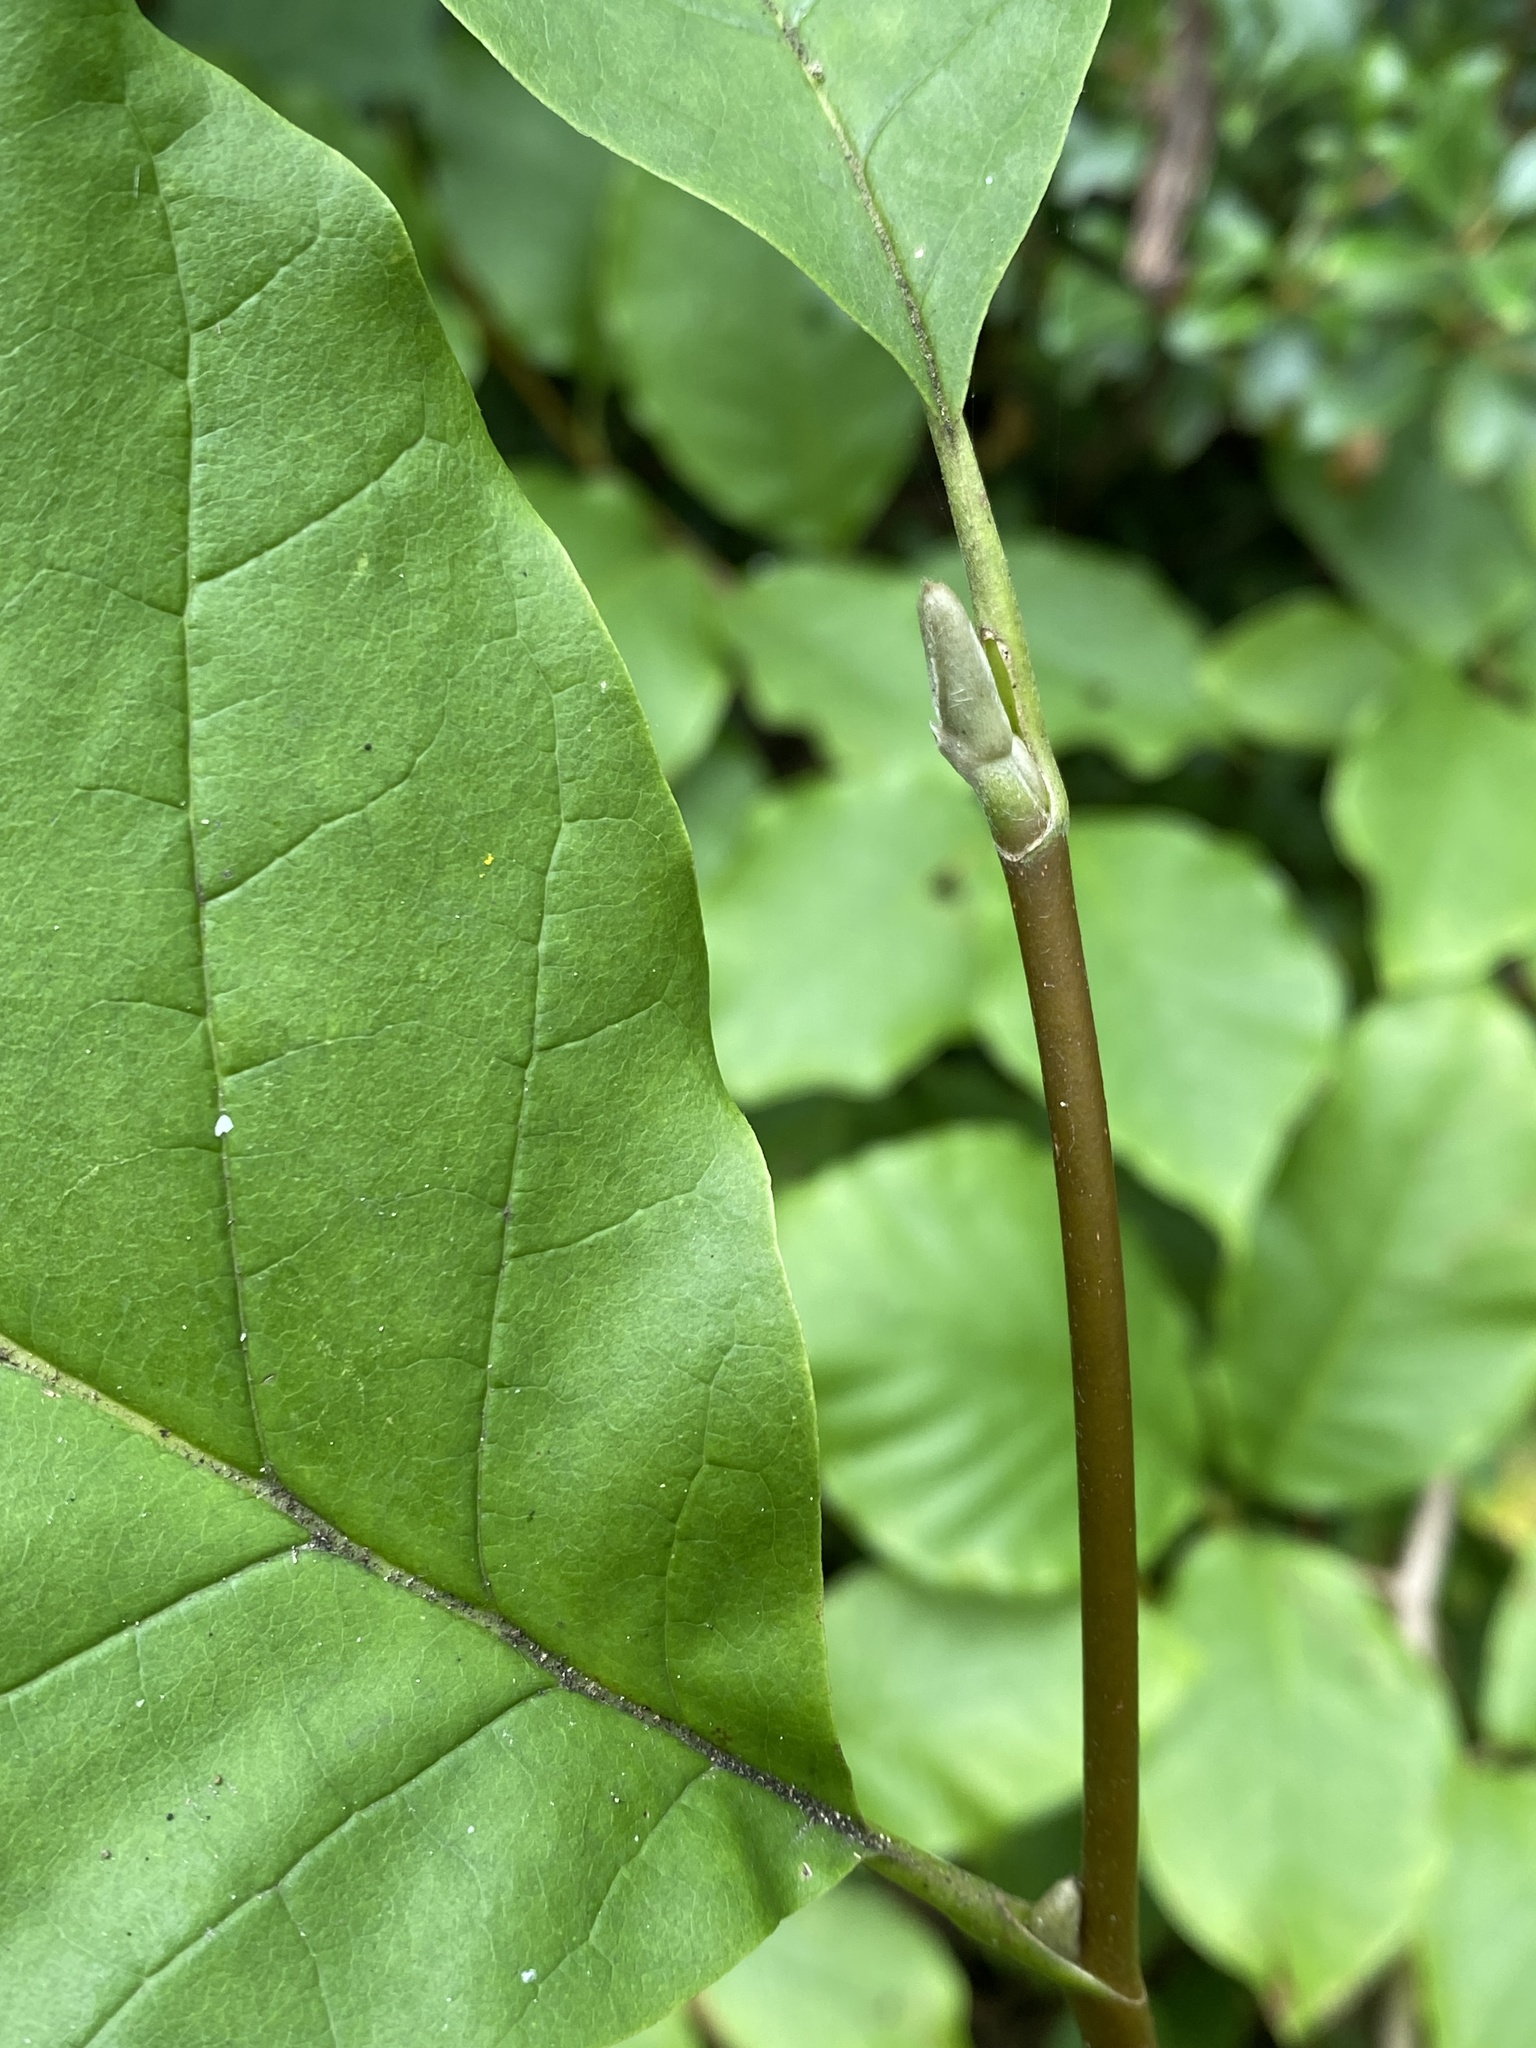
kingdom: Plantae
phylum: Tracheophyta
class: Magnoliopsida
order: Magnoliales
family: Magnoliaceae
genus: Magnolia
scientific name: Magnolia acuminata
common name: Cucumber magnolia
